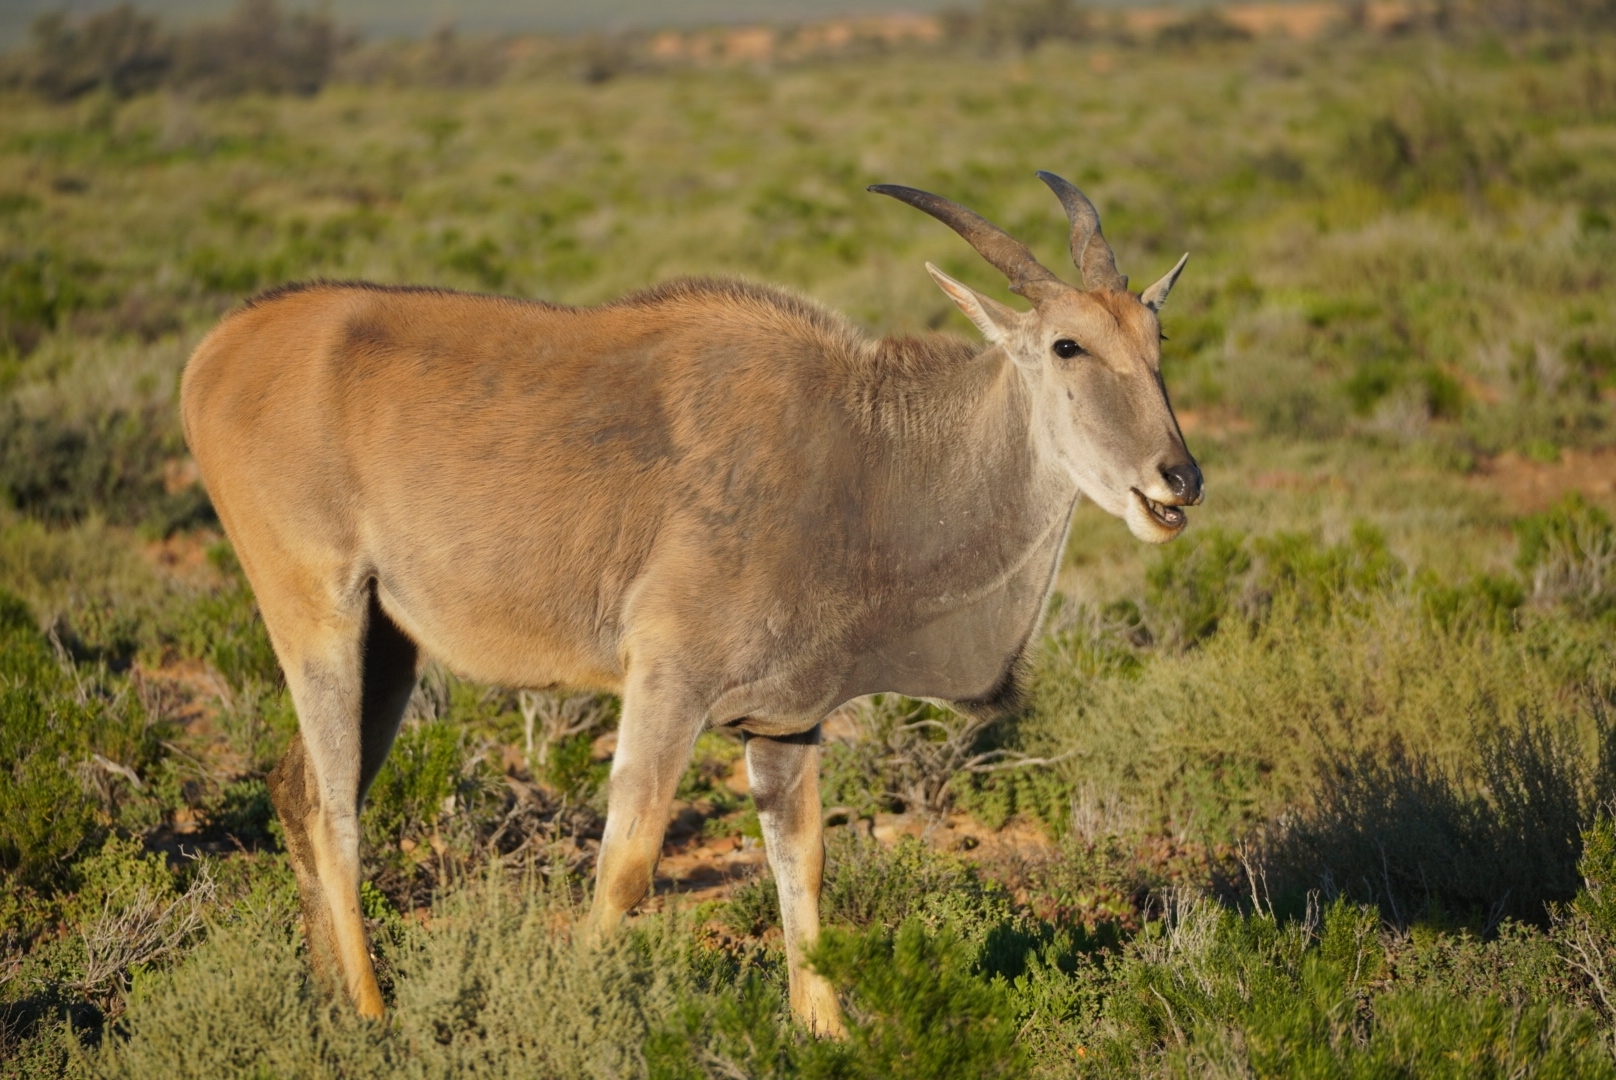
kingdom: Animalia
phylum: Chordata
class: Mammalia
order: Artiodactyla
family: Bovidae
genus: Taurotragus
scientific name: Taurotragus oryx
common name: Common eland
